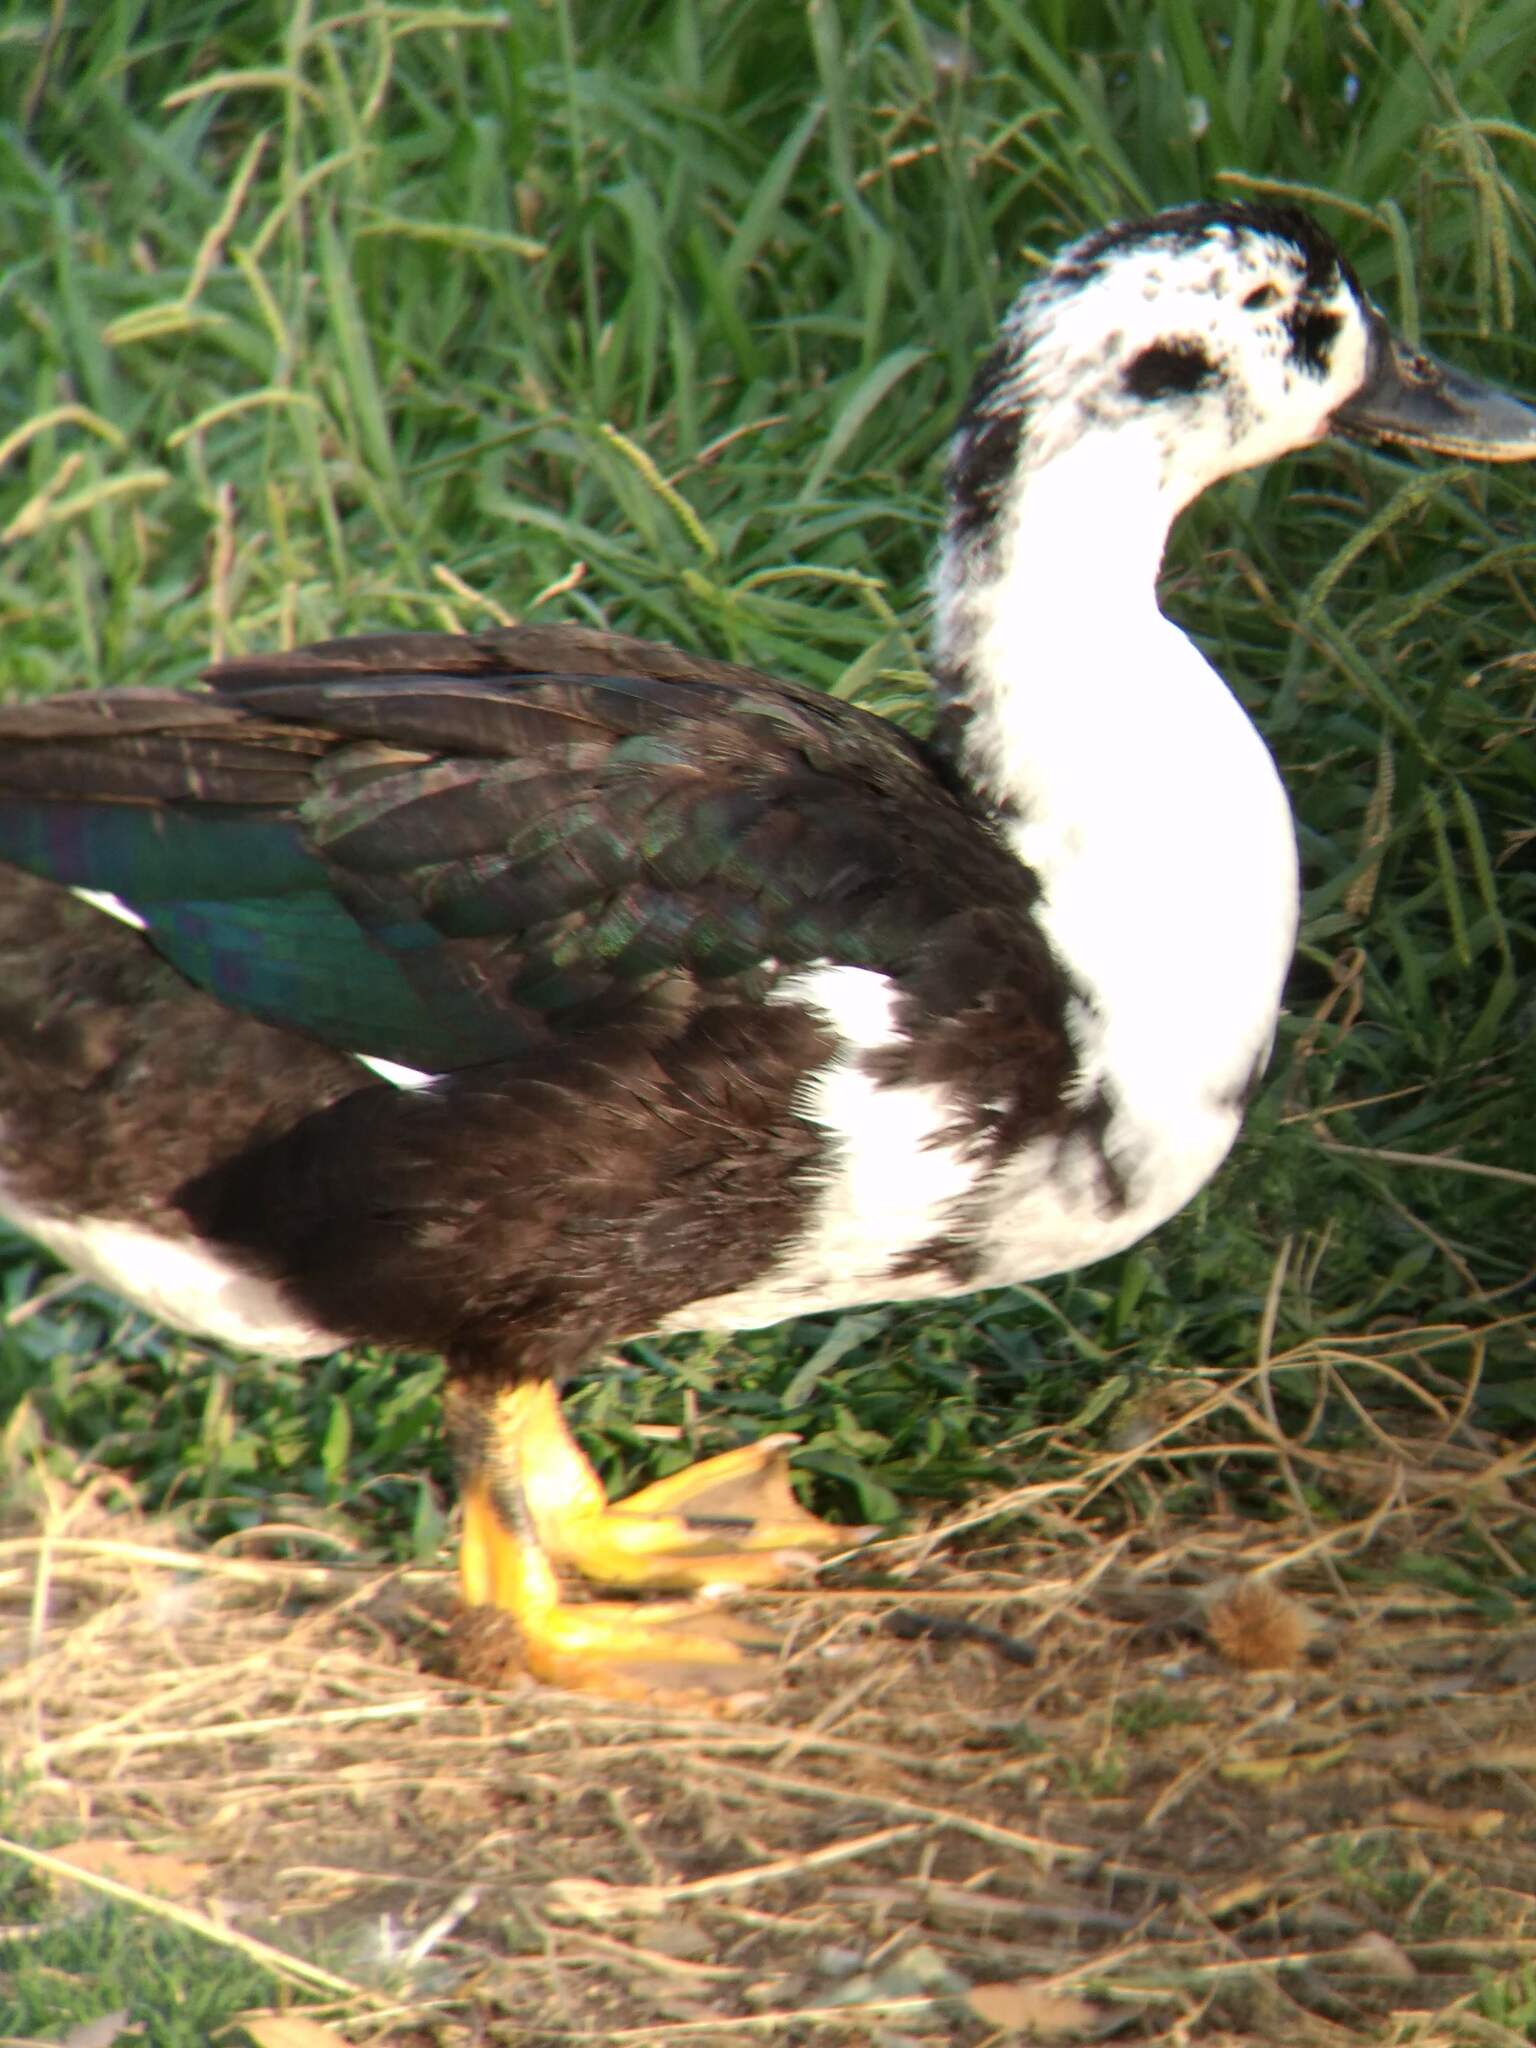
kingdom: Animalia
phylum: Chordata
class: Aves
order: Anseriformes
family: Anatidae
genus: Anas
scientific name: Anas platyrhynchos
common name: Mallard
